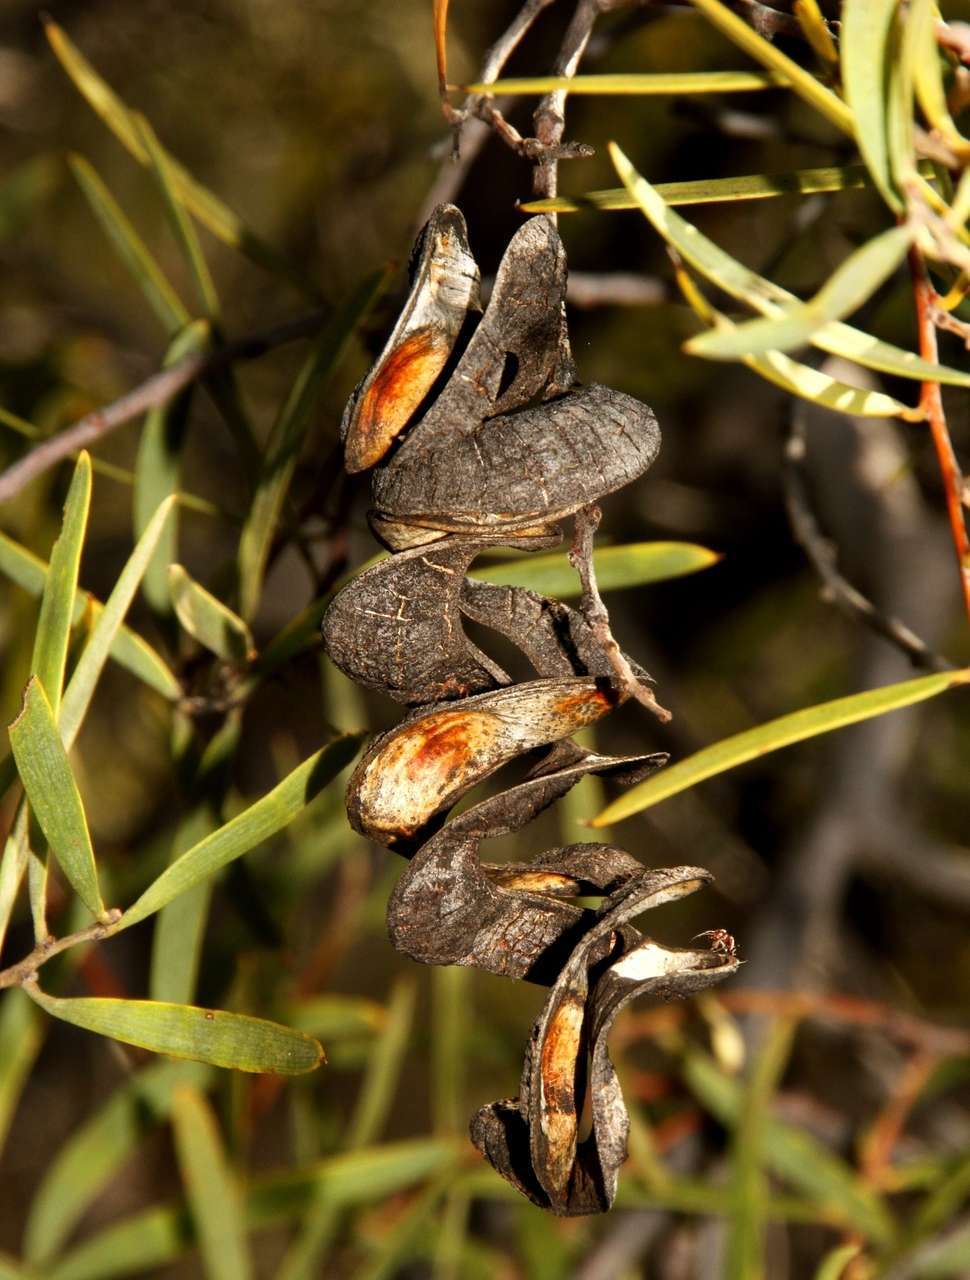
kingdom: Plantae
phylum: Tracheophyta
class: Magnoliopsida
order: Fabales
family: Fabaceae
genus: Acacia
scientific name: Acacia oswaldii
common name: Umbrella wattle
